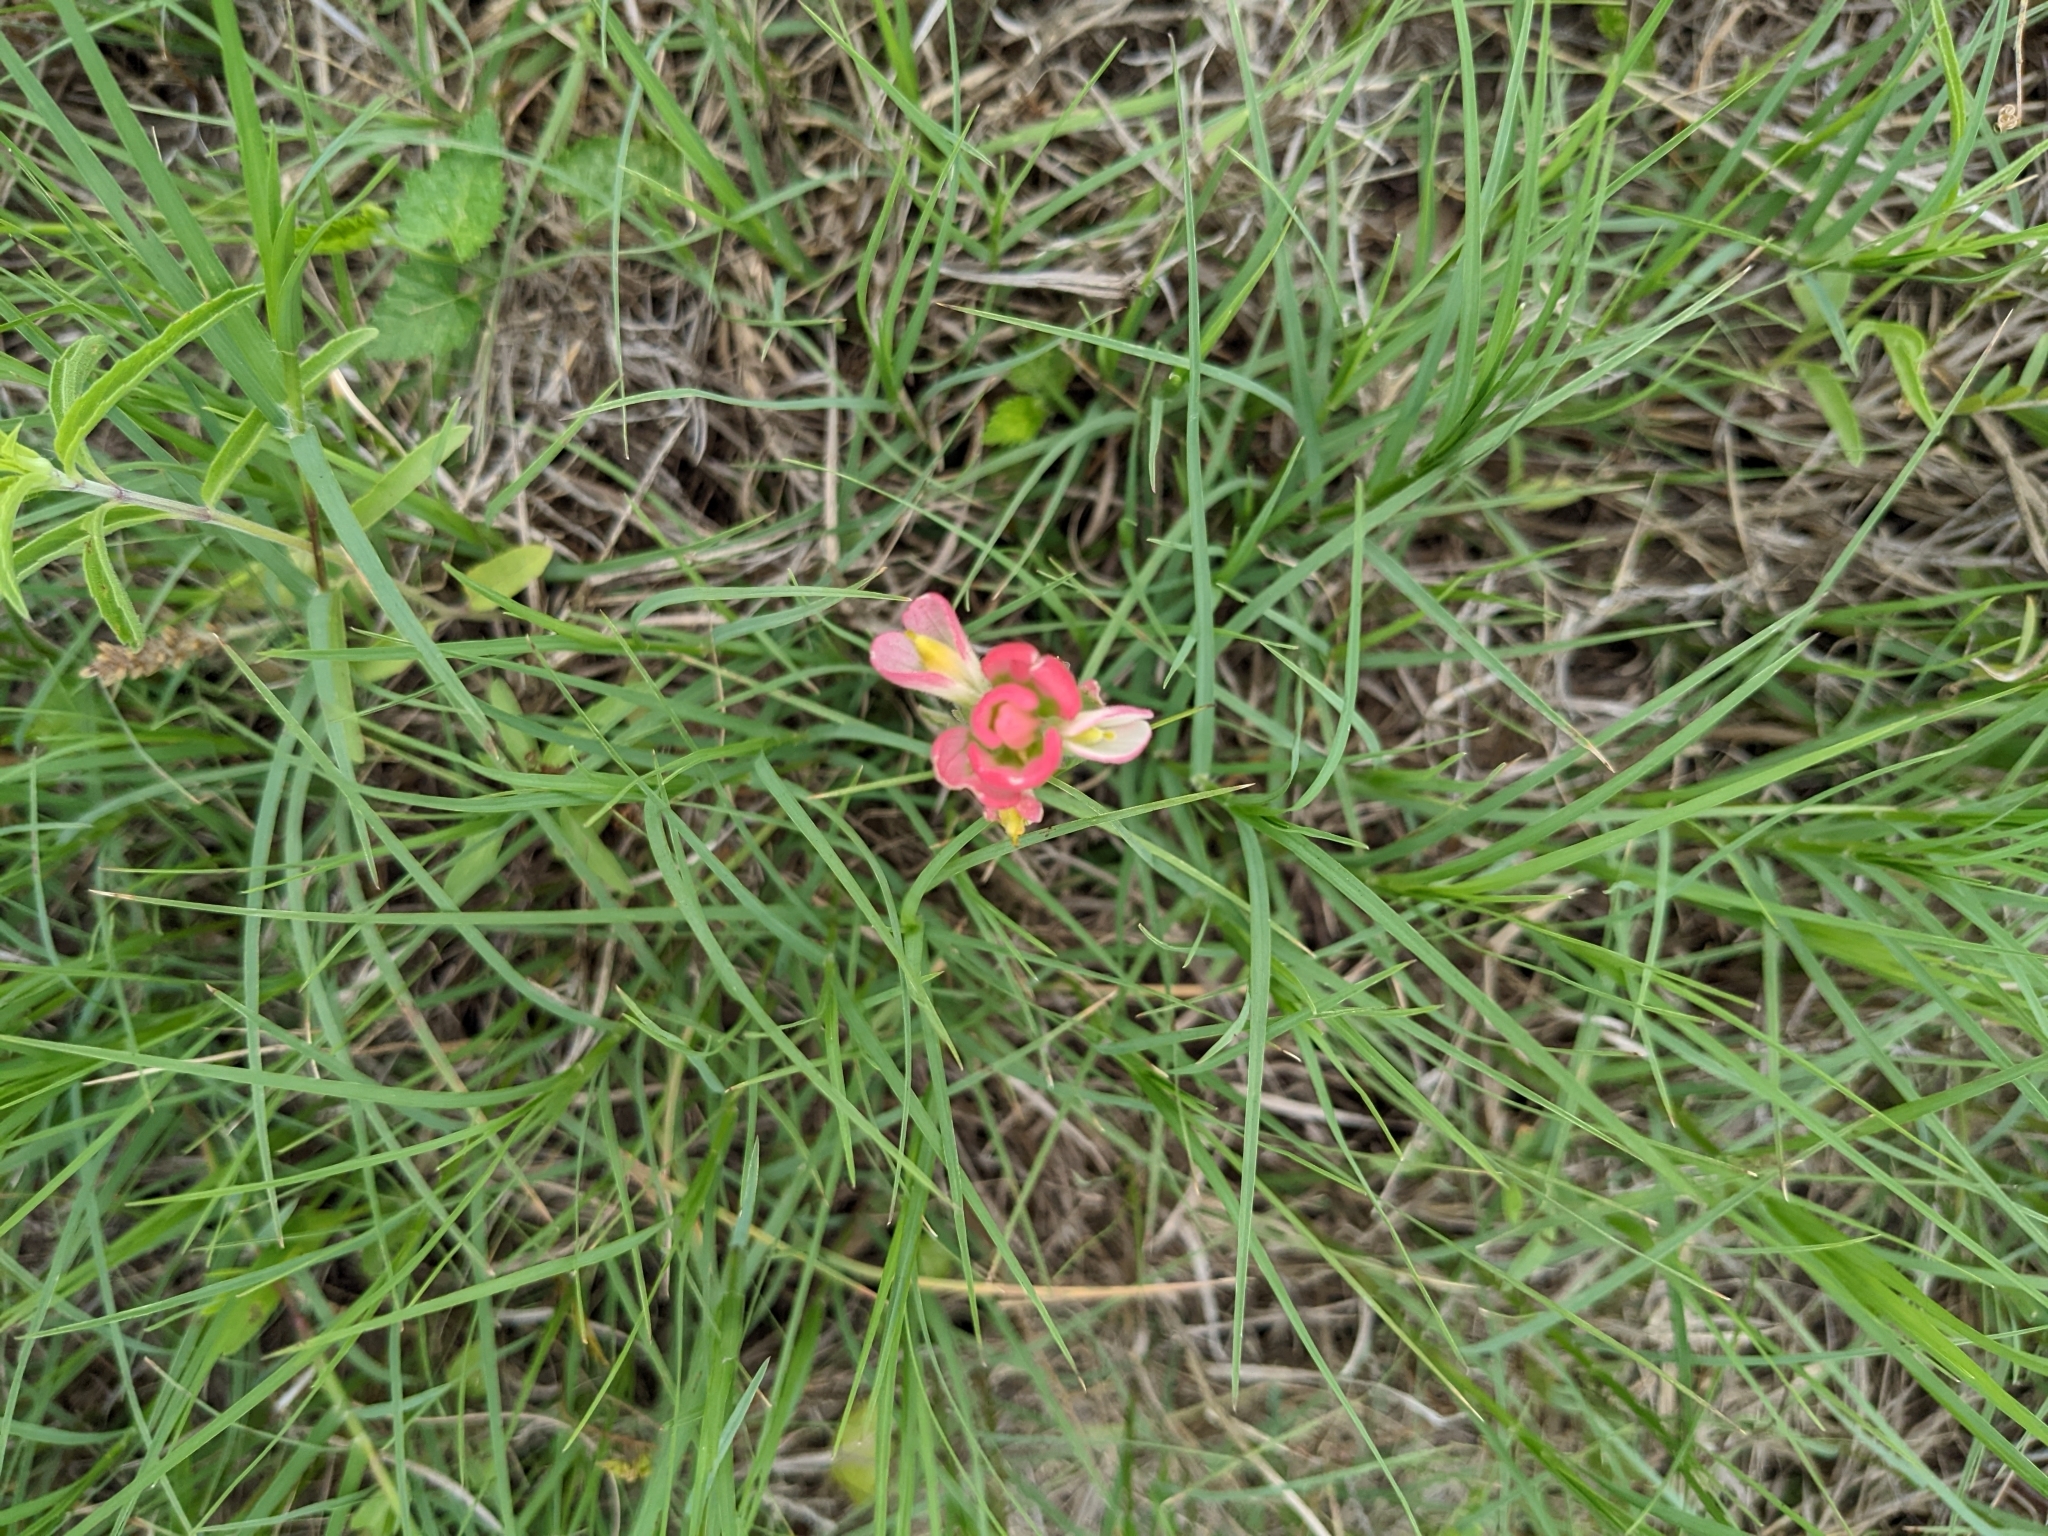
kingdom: Plantae
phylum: Tracheophyta
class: Magnoliopsida
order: Lamiales
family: Orobanchaceae
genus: Castilleja
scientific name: Castilleja indivisa
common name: Texas paintbrush
